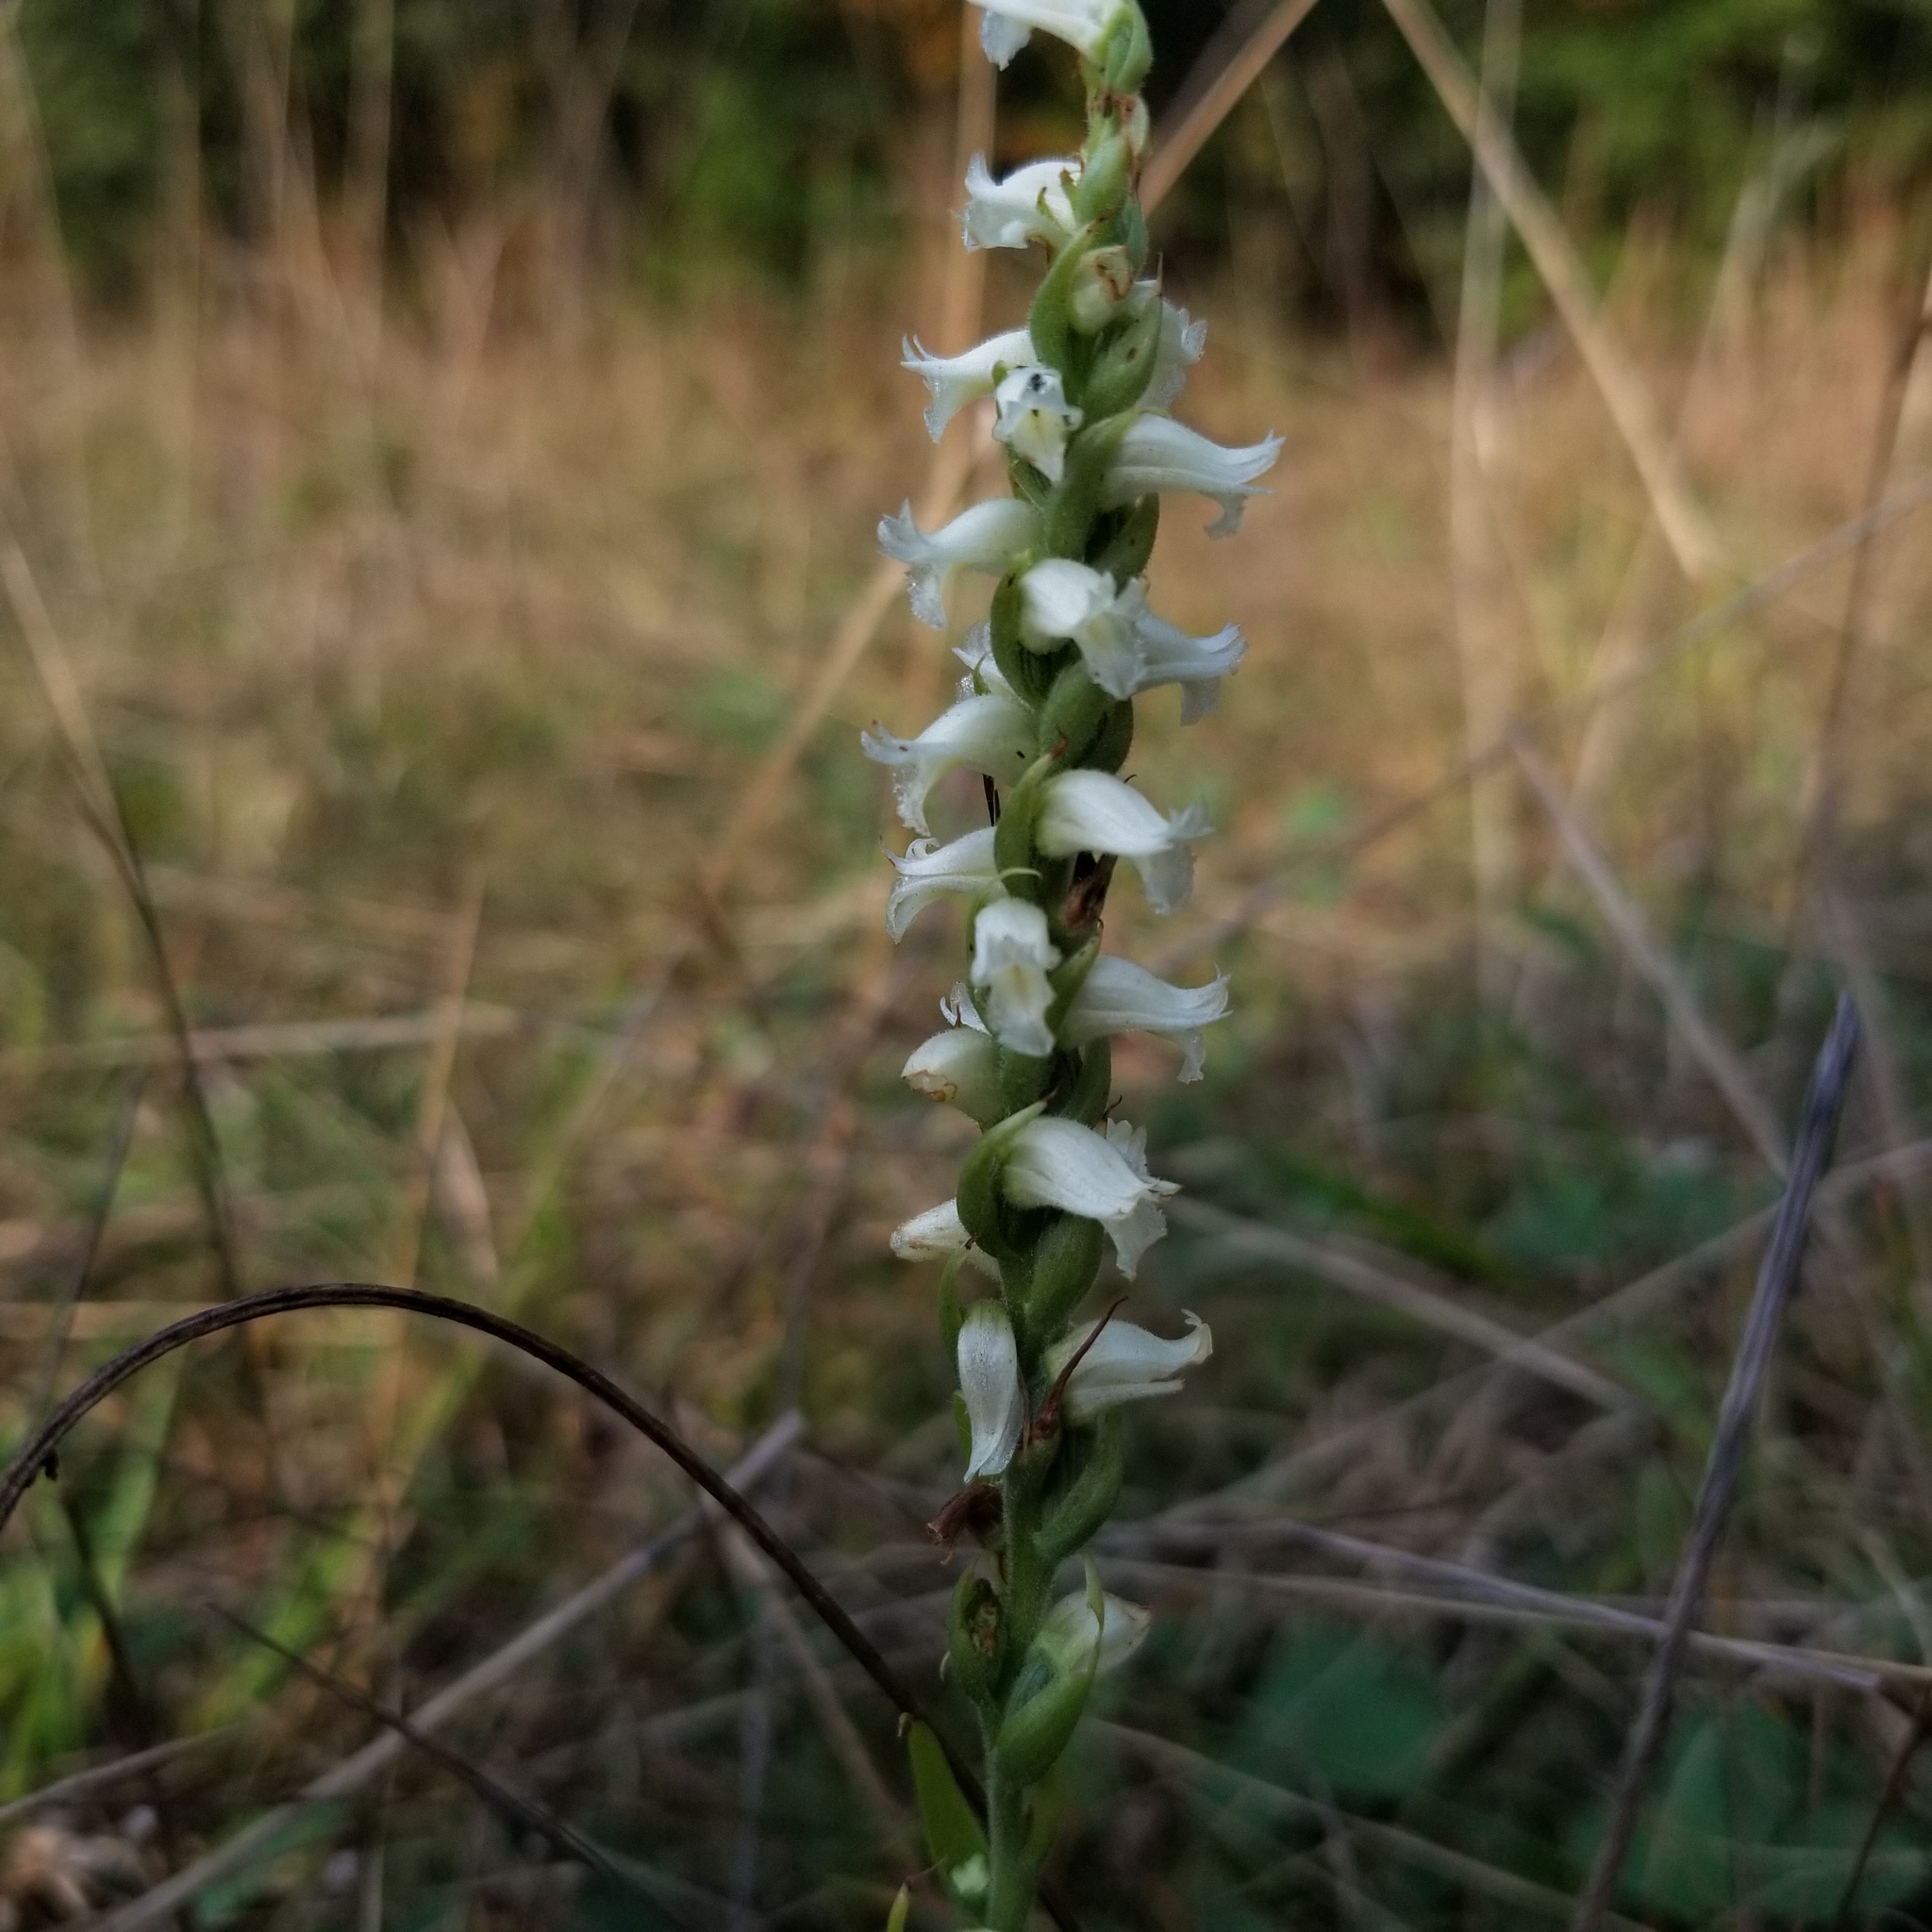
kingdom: Plantae
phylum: Tracheophyta
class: Liliopsida
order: Asparagales
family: Orchidaceae
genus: Spiranthes
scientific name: Spiranthes ochroleuca
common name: Yellow ladies'-tresses
